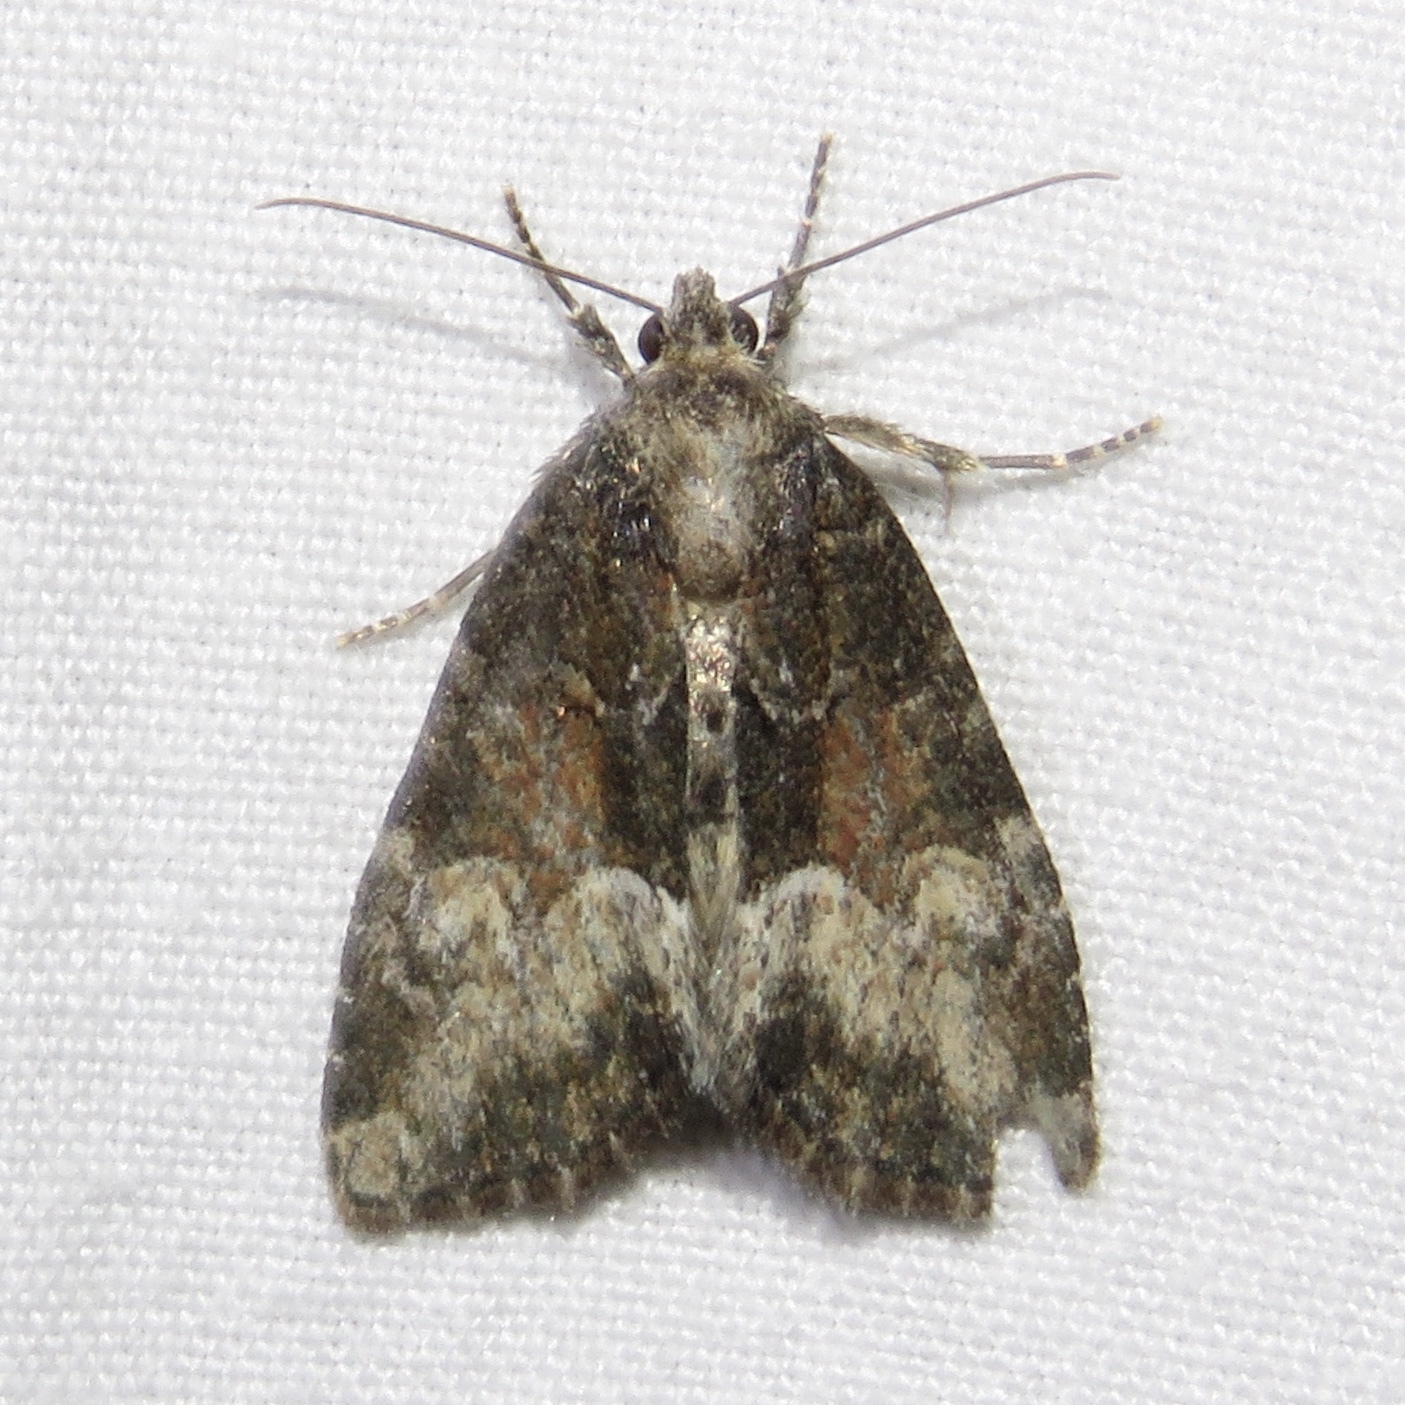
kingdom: Animalia
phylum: Arthropoda
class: Insecta
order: Lepidoptera
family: Noctuidae
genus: Neoligia
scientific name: Neoligia subjuncta
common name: Connected brocade
